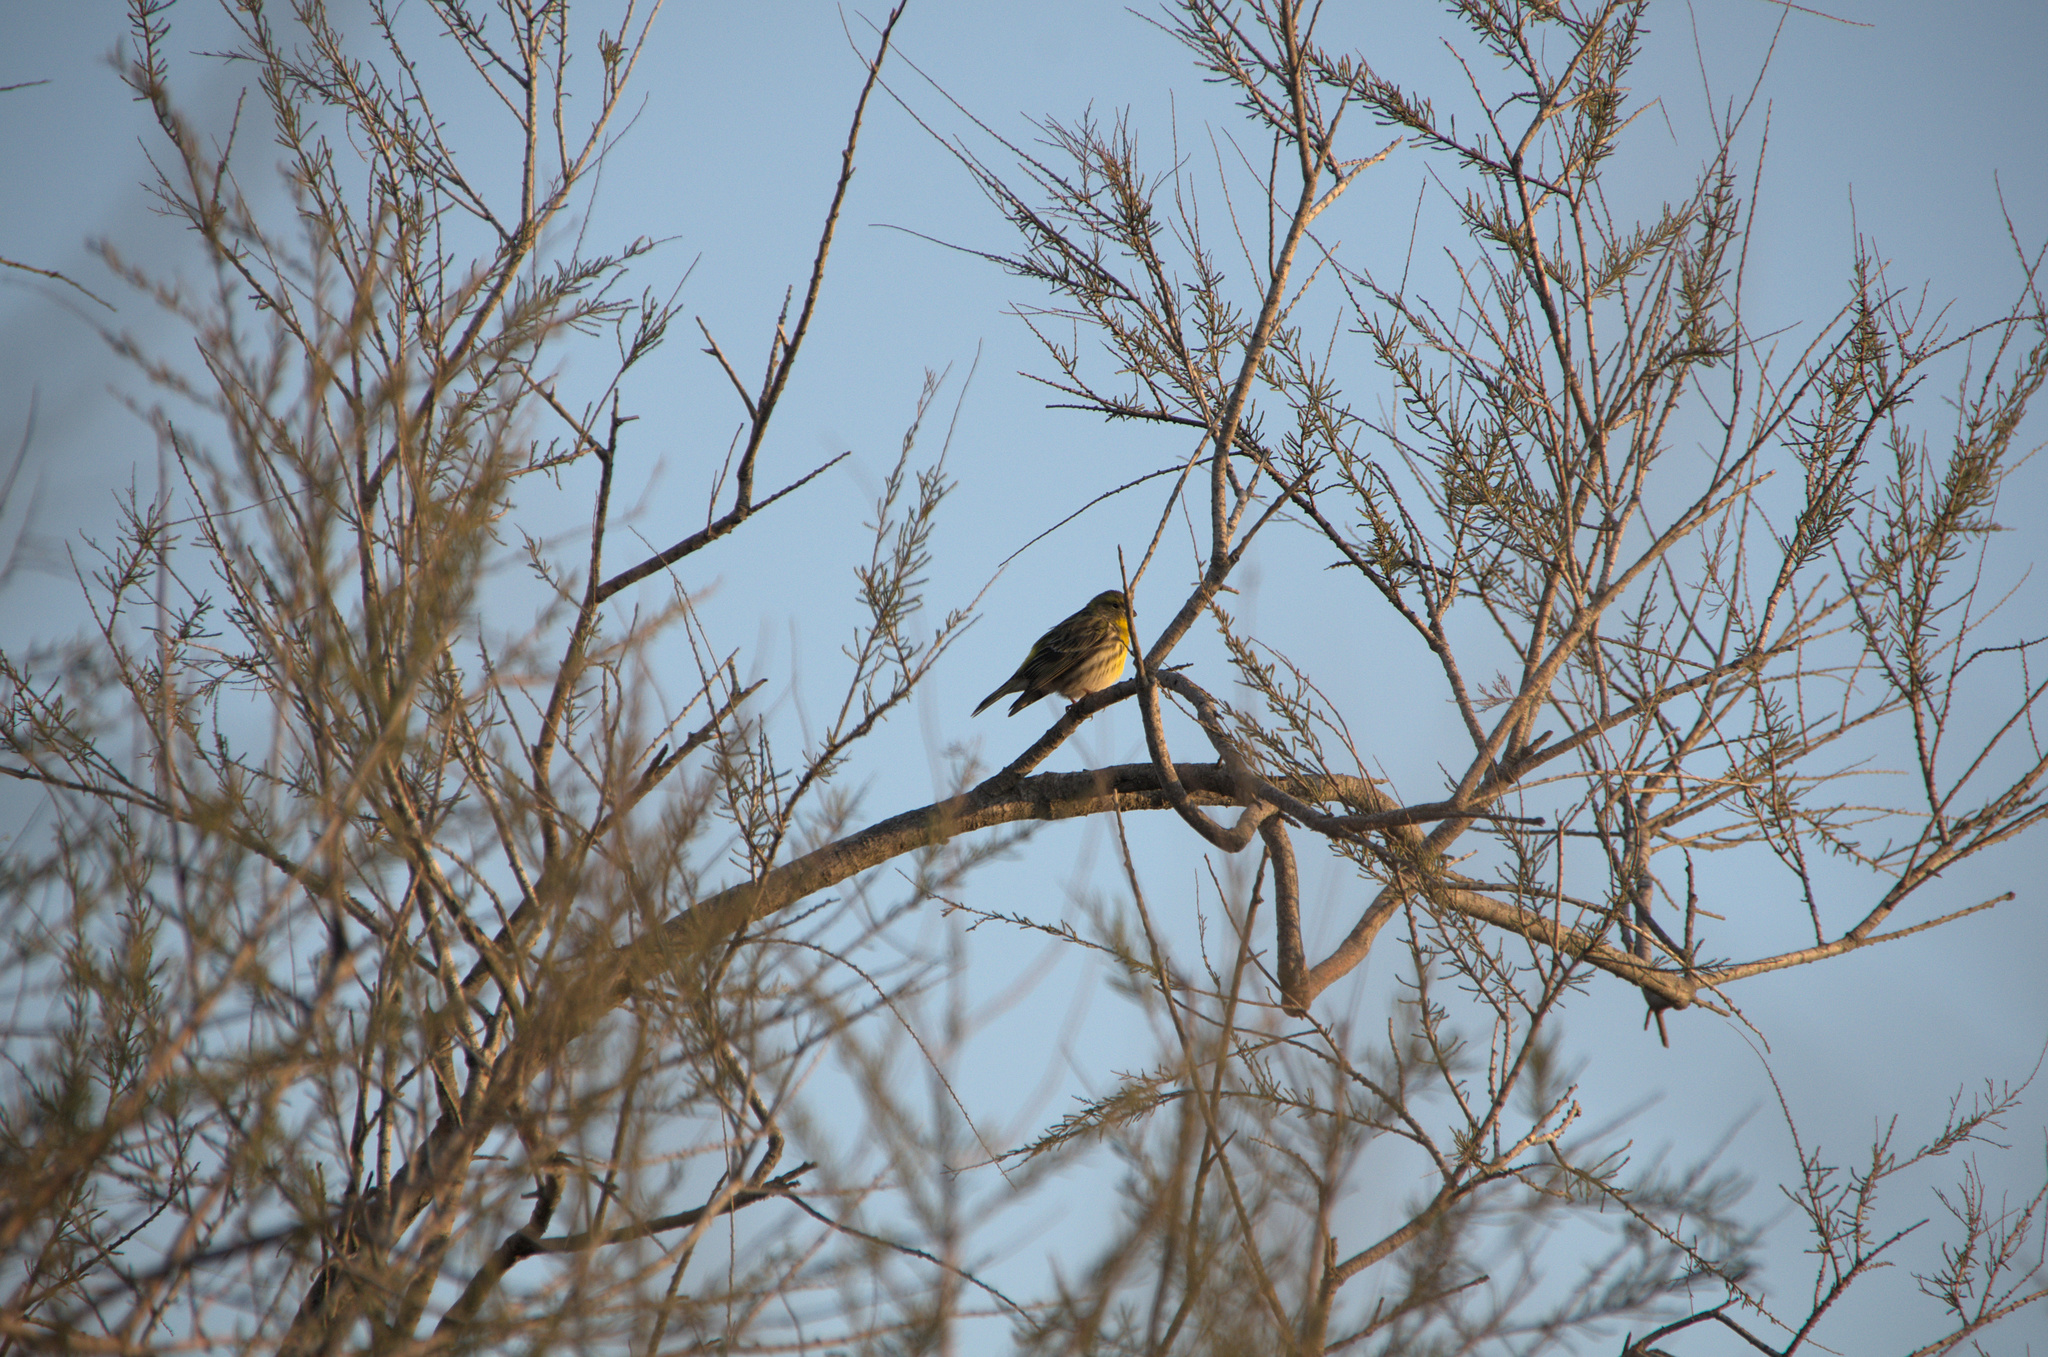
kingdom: Animalia
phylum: Chordata
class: Aves
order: Passeriformes
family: Fringillidae
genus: Serinus
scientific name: Serinus serinus
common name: European serin
